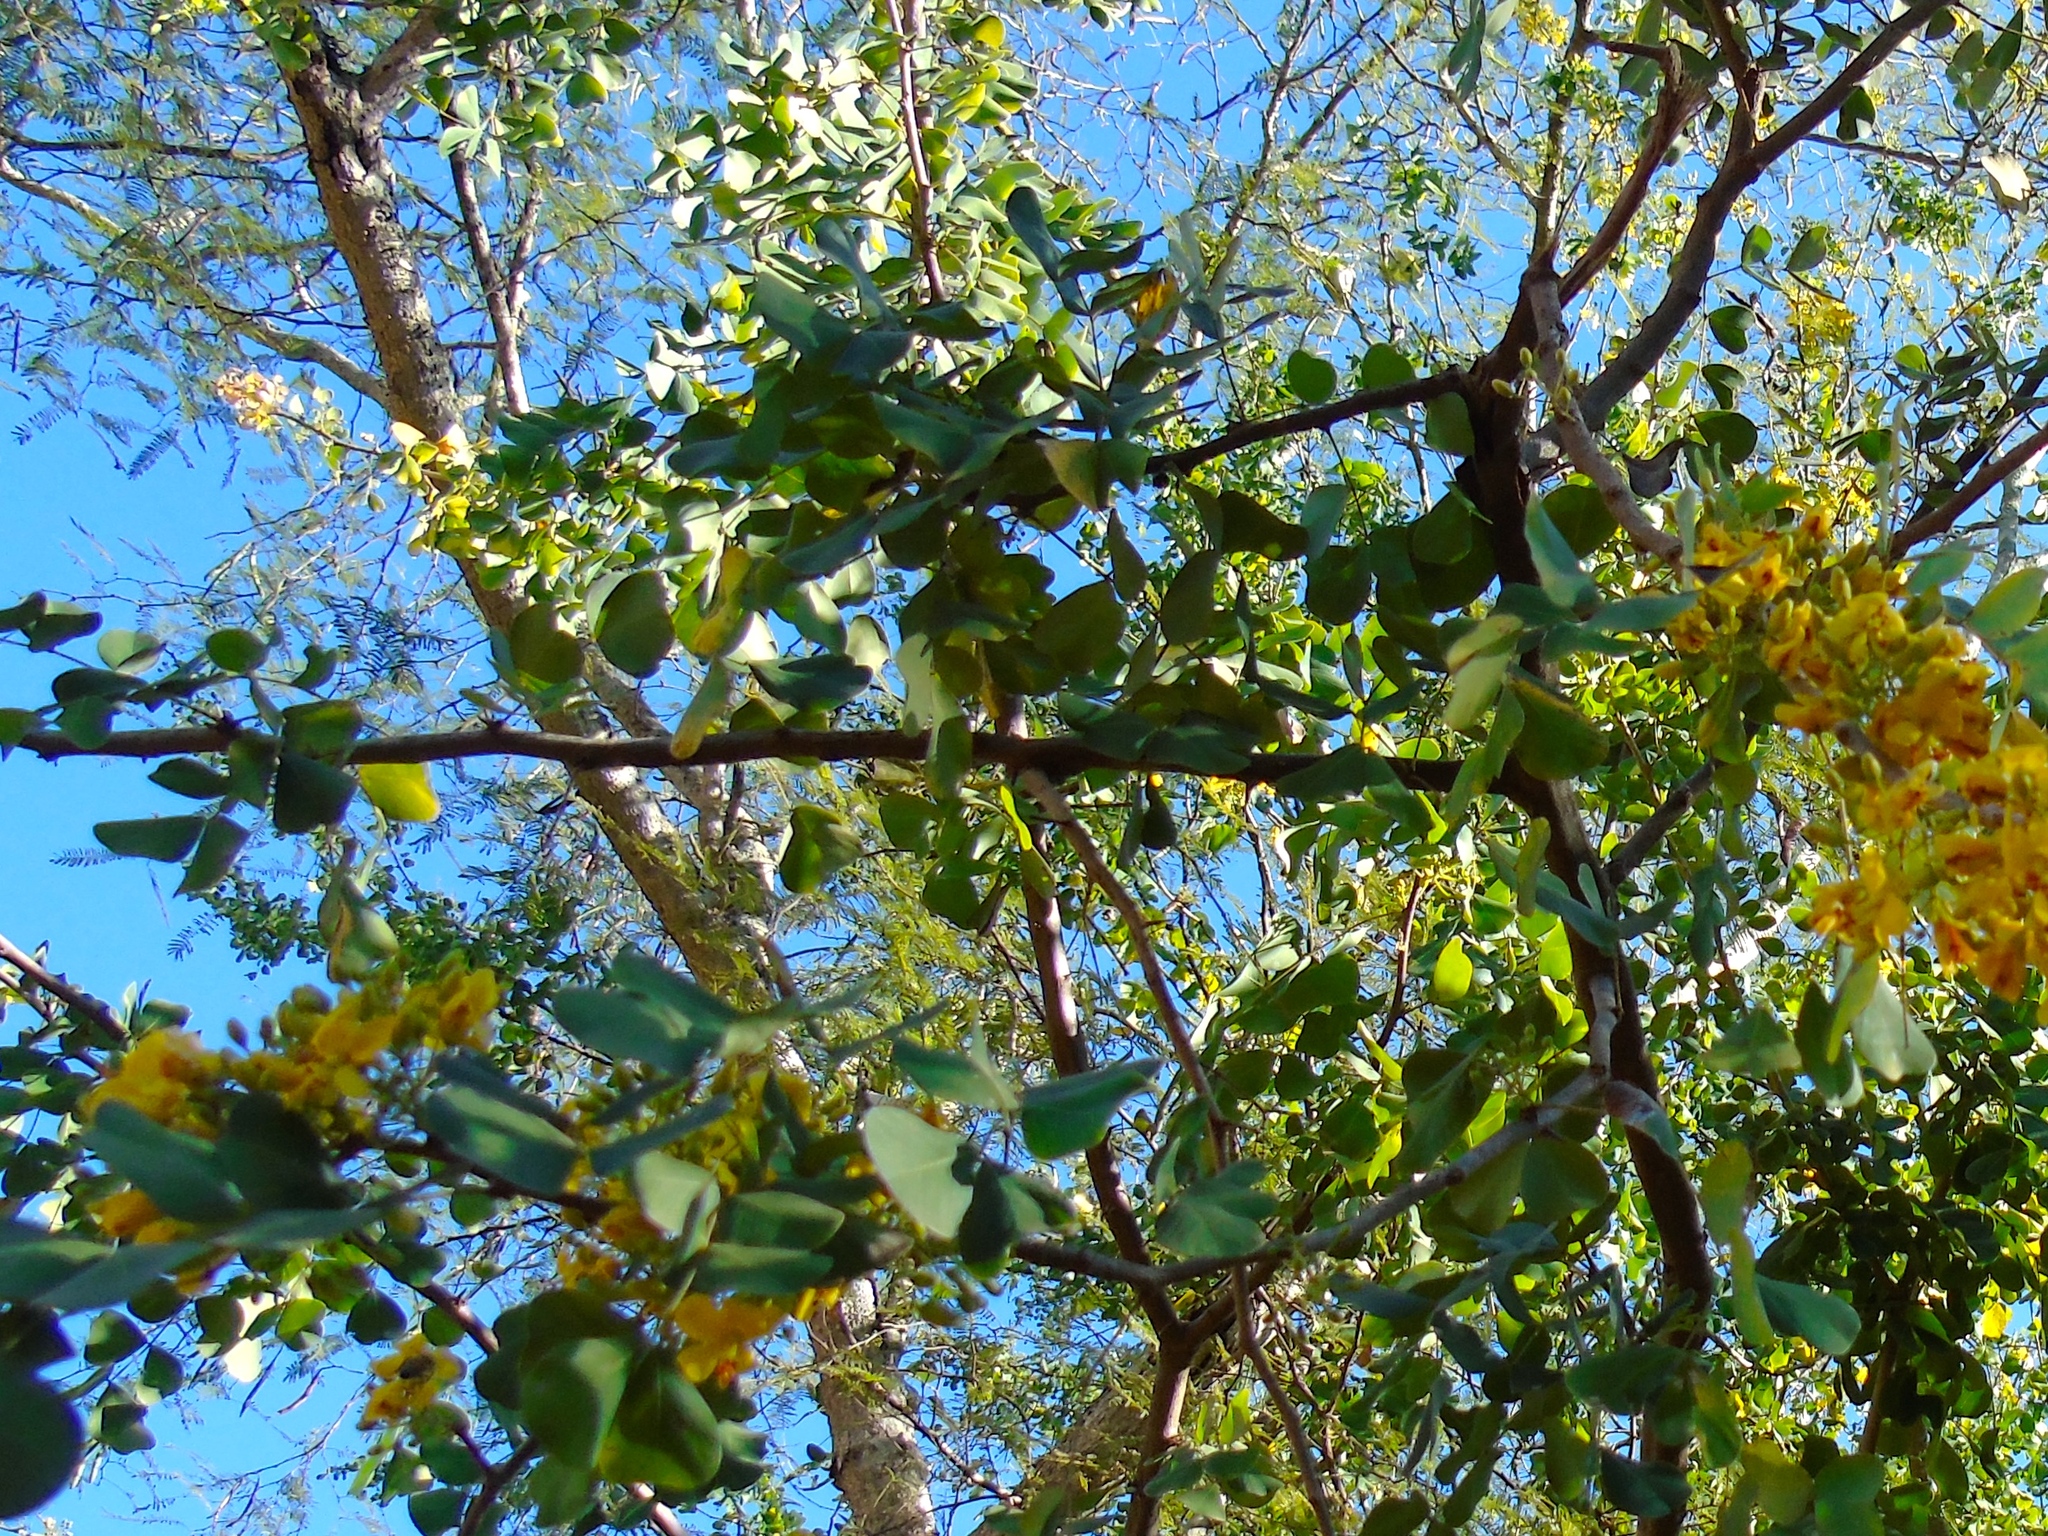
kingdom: Plantae
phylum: Tracheophyta
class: Magnoliopsida
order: Fabales
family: Fabaceae
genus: Haematoxylum
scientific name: Haematoxylum brasiletto
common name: Peachwood
